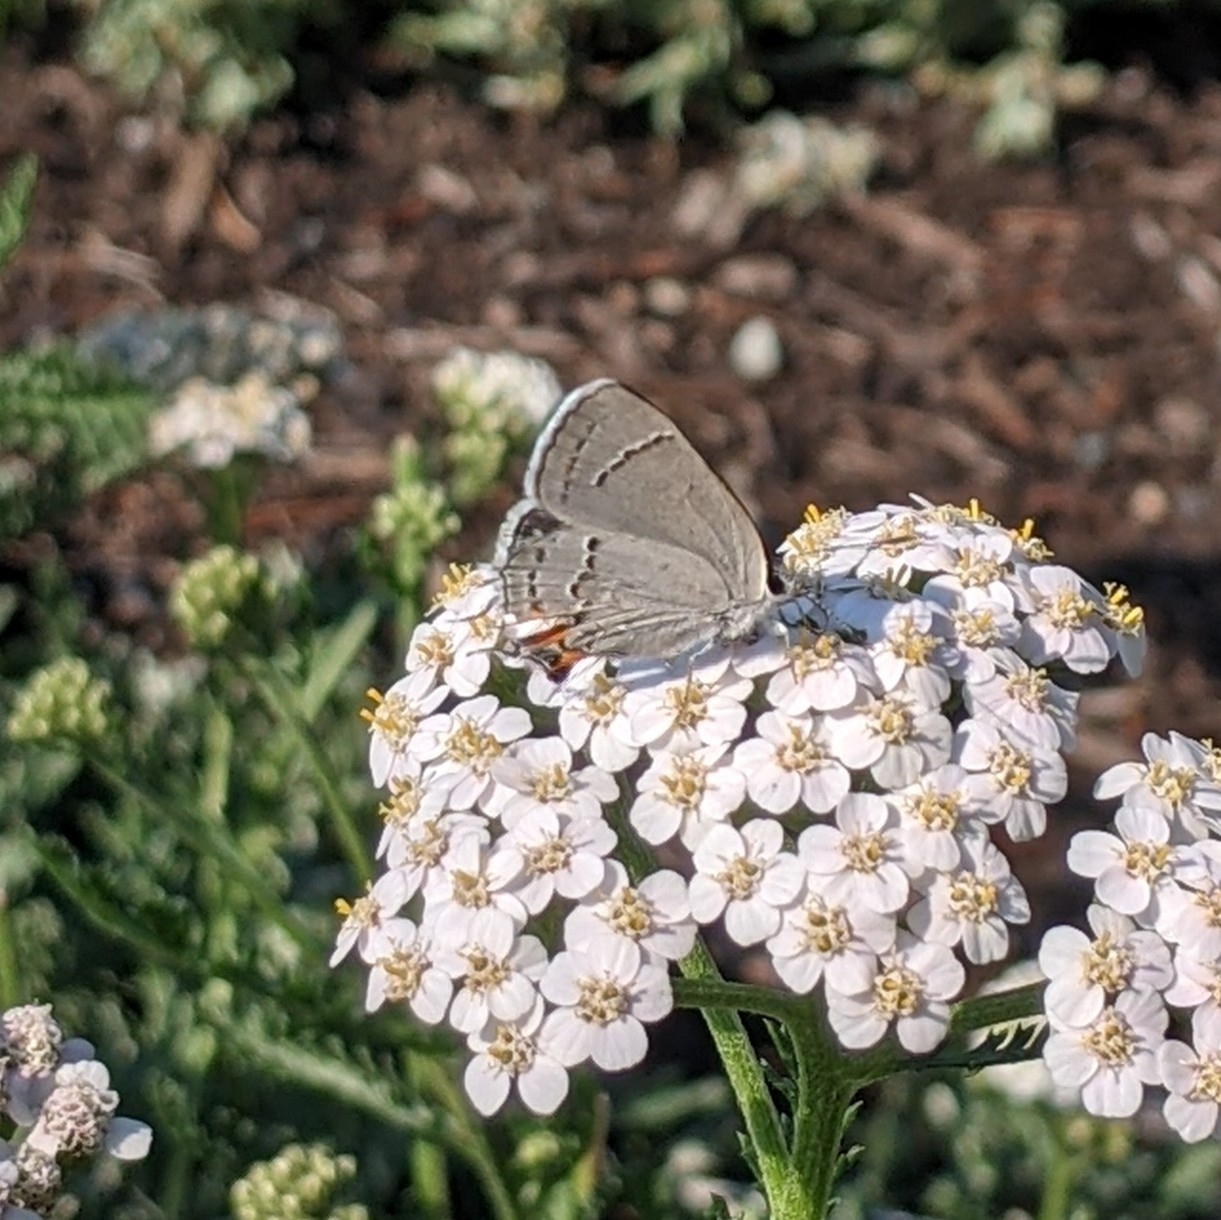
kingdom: Animalia
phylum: Arthropoda
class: Insecta
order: Lepidoptera
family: Lycaenidae
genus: Strymon
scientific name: Strymon melinus
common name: Gray hairstreak
